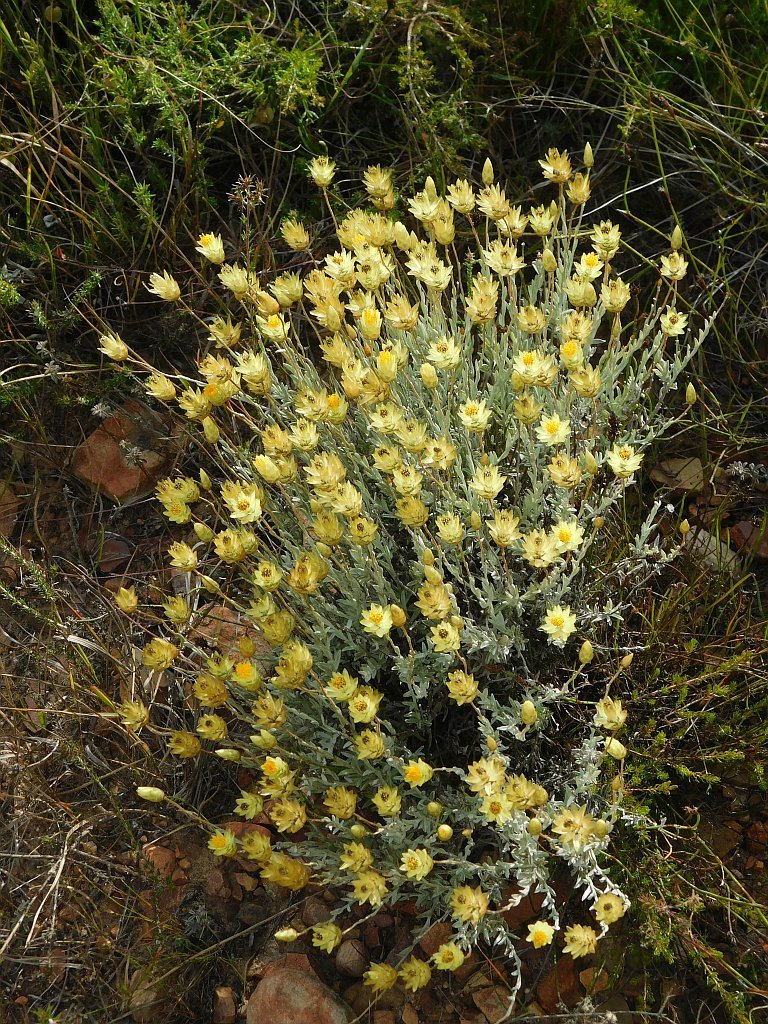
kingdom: Plantae
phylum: Tracheophyta
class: Magnoliopsida
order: Asterales
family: Asteraceae
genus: Syncarpha
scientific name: Syncarpha staehelina
